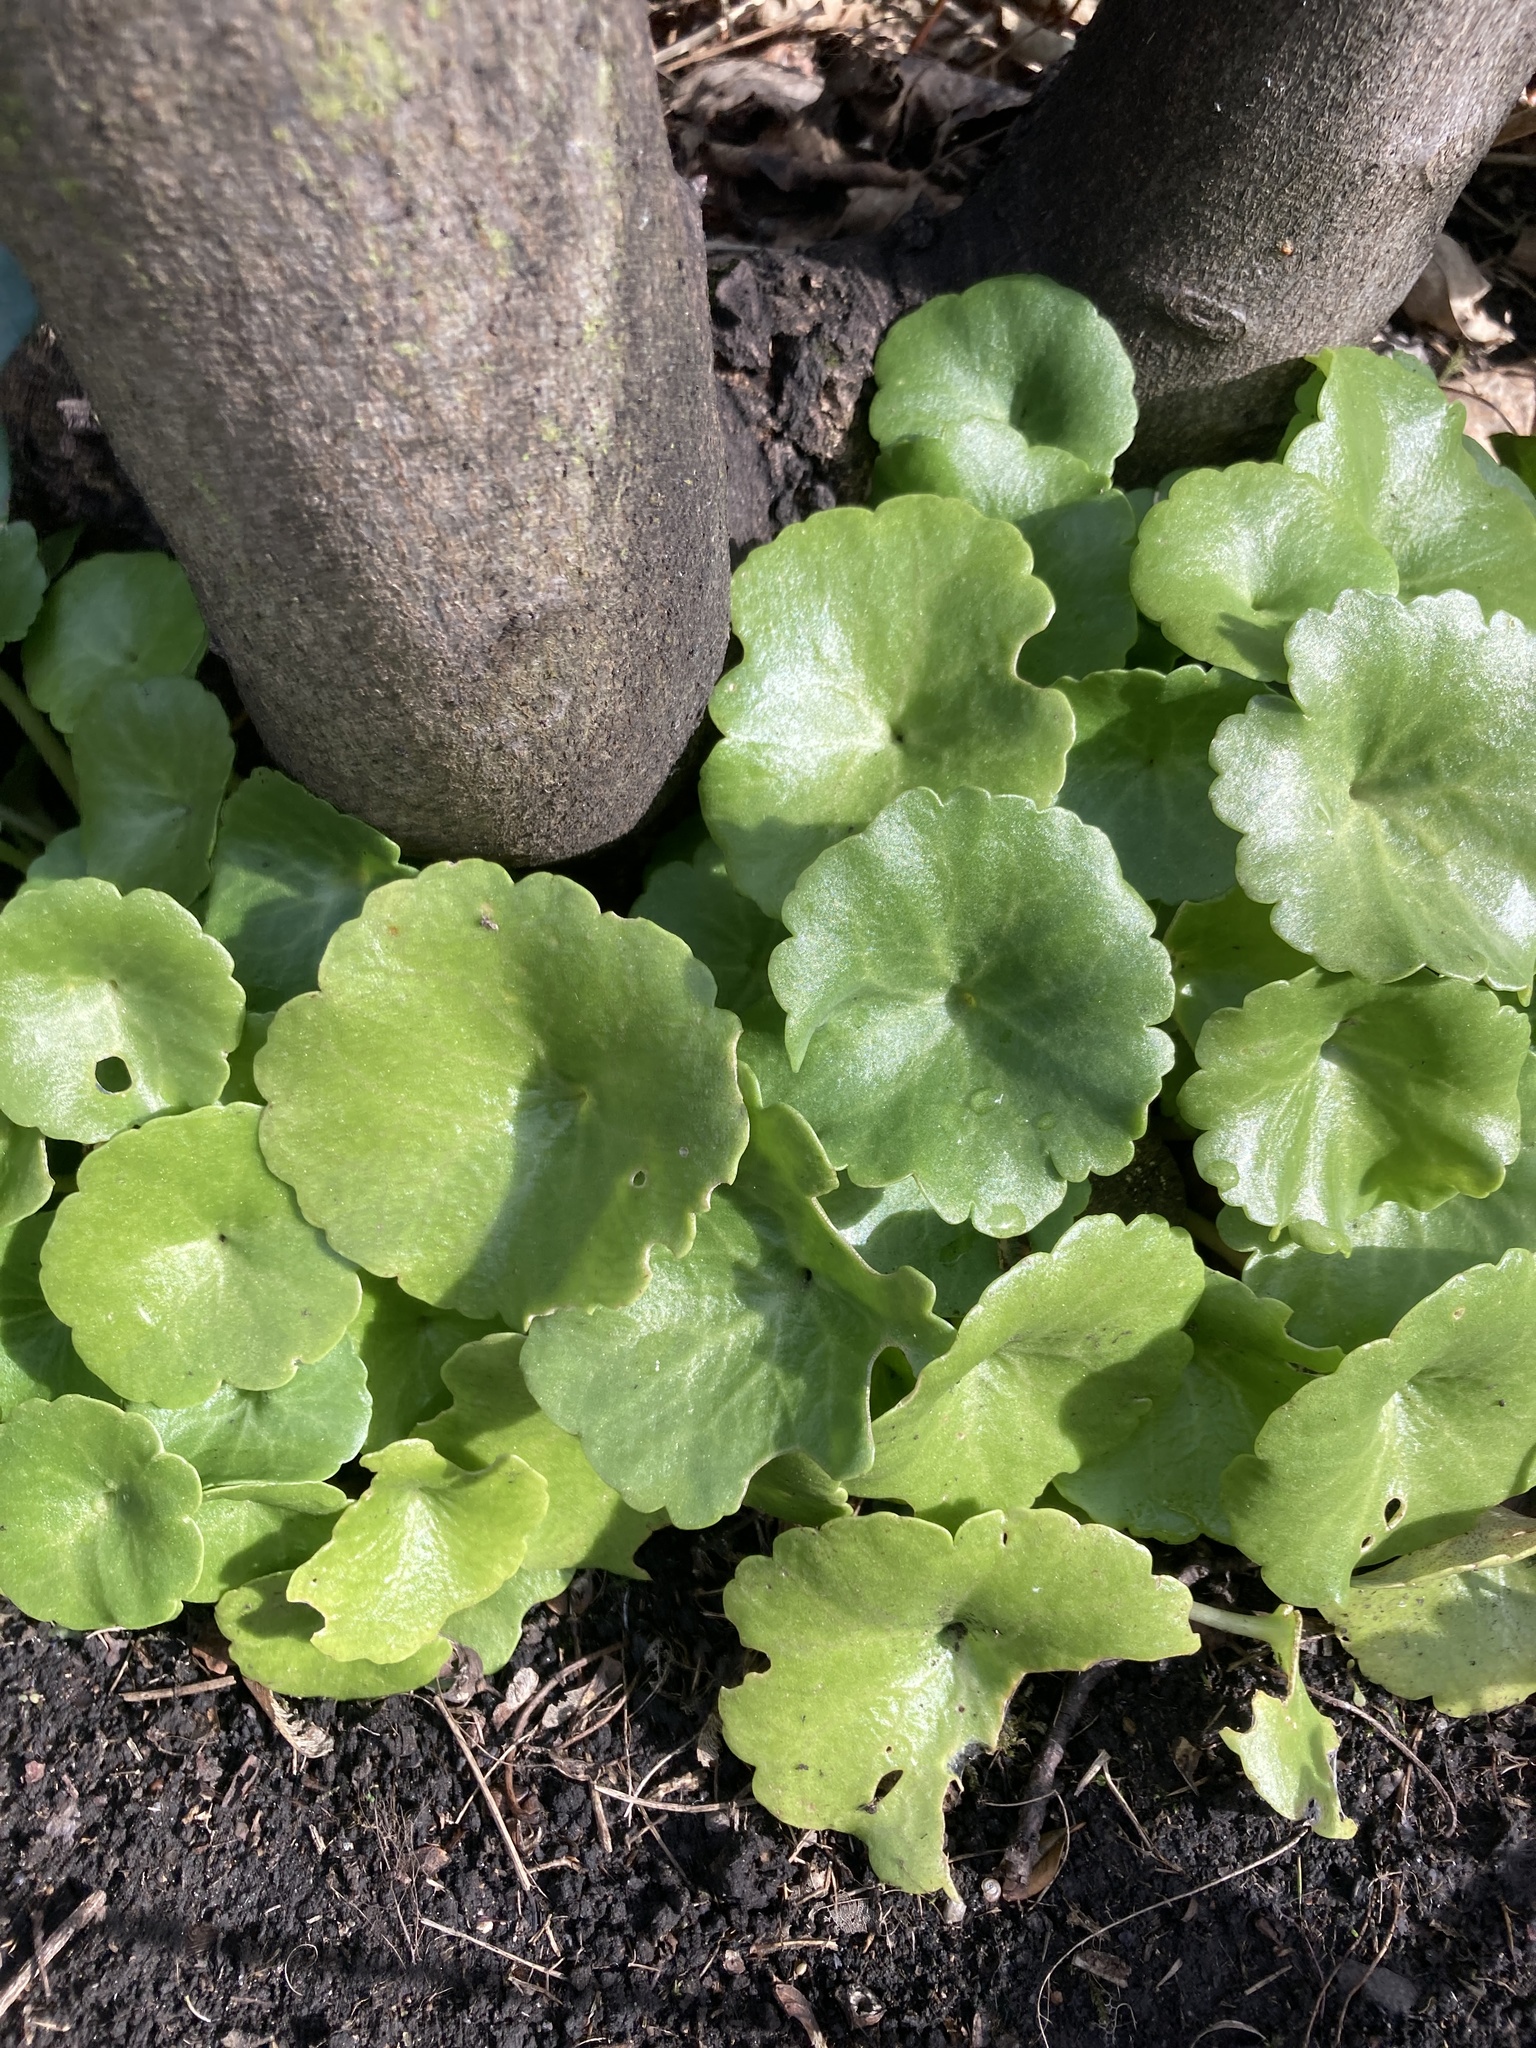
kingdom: Plantae
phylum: Tracheophyta
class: Magnoliopsida
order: Saxifragales
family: Crassulaceae
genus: Umbilicus
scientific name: Umbilicus rupestris
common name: Navelwort
